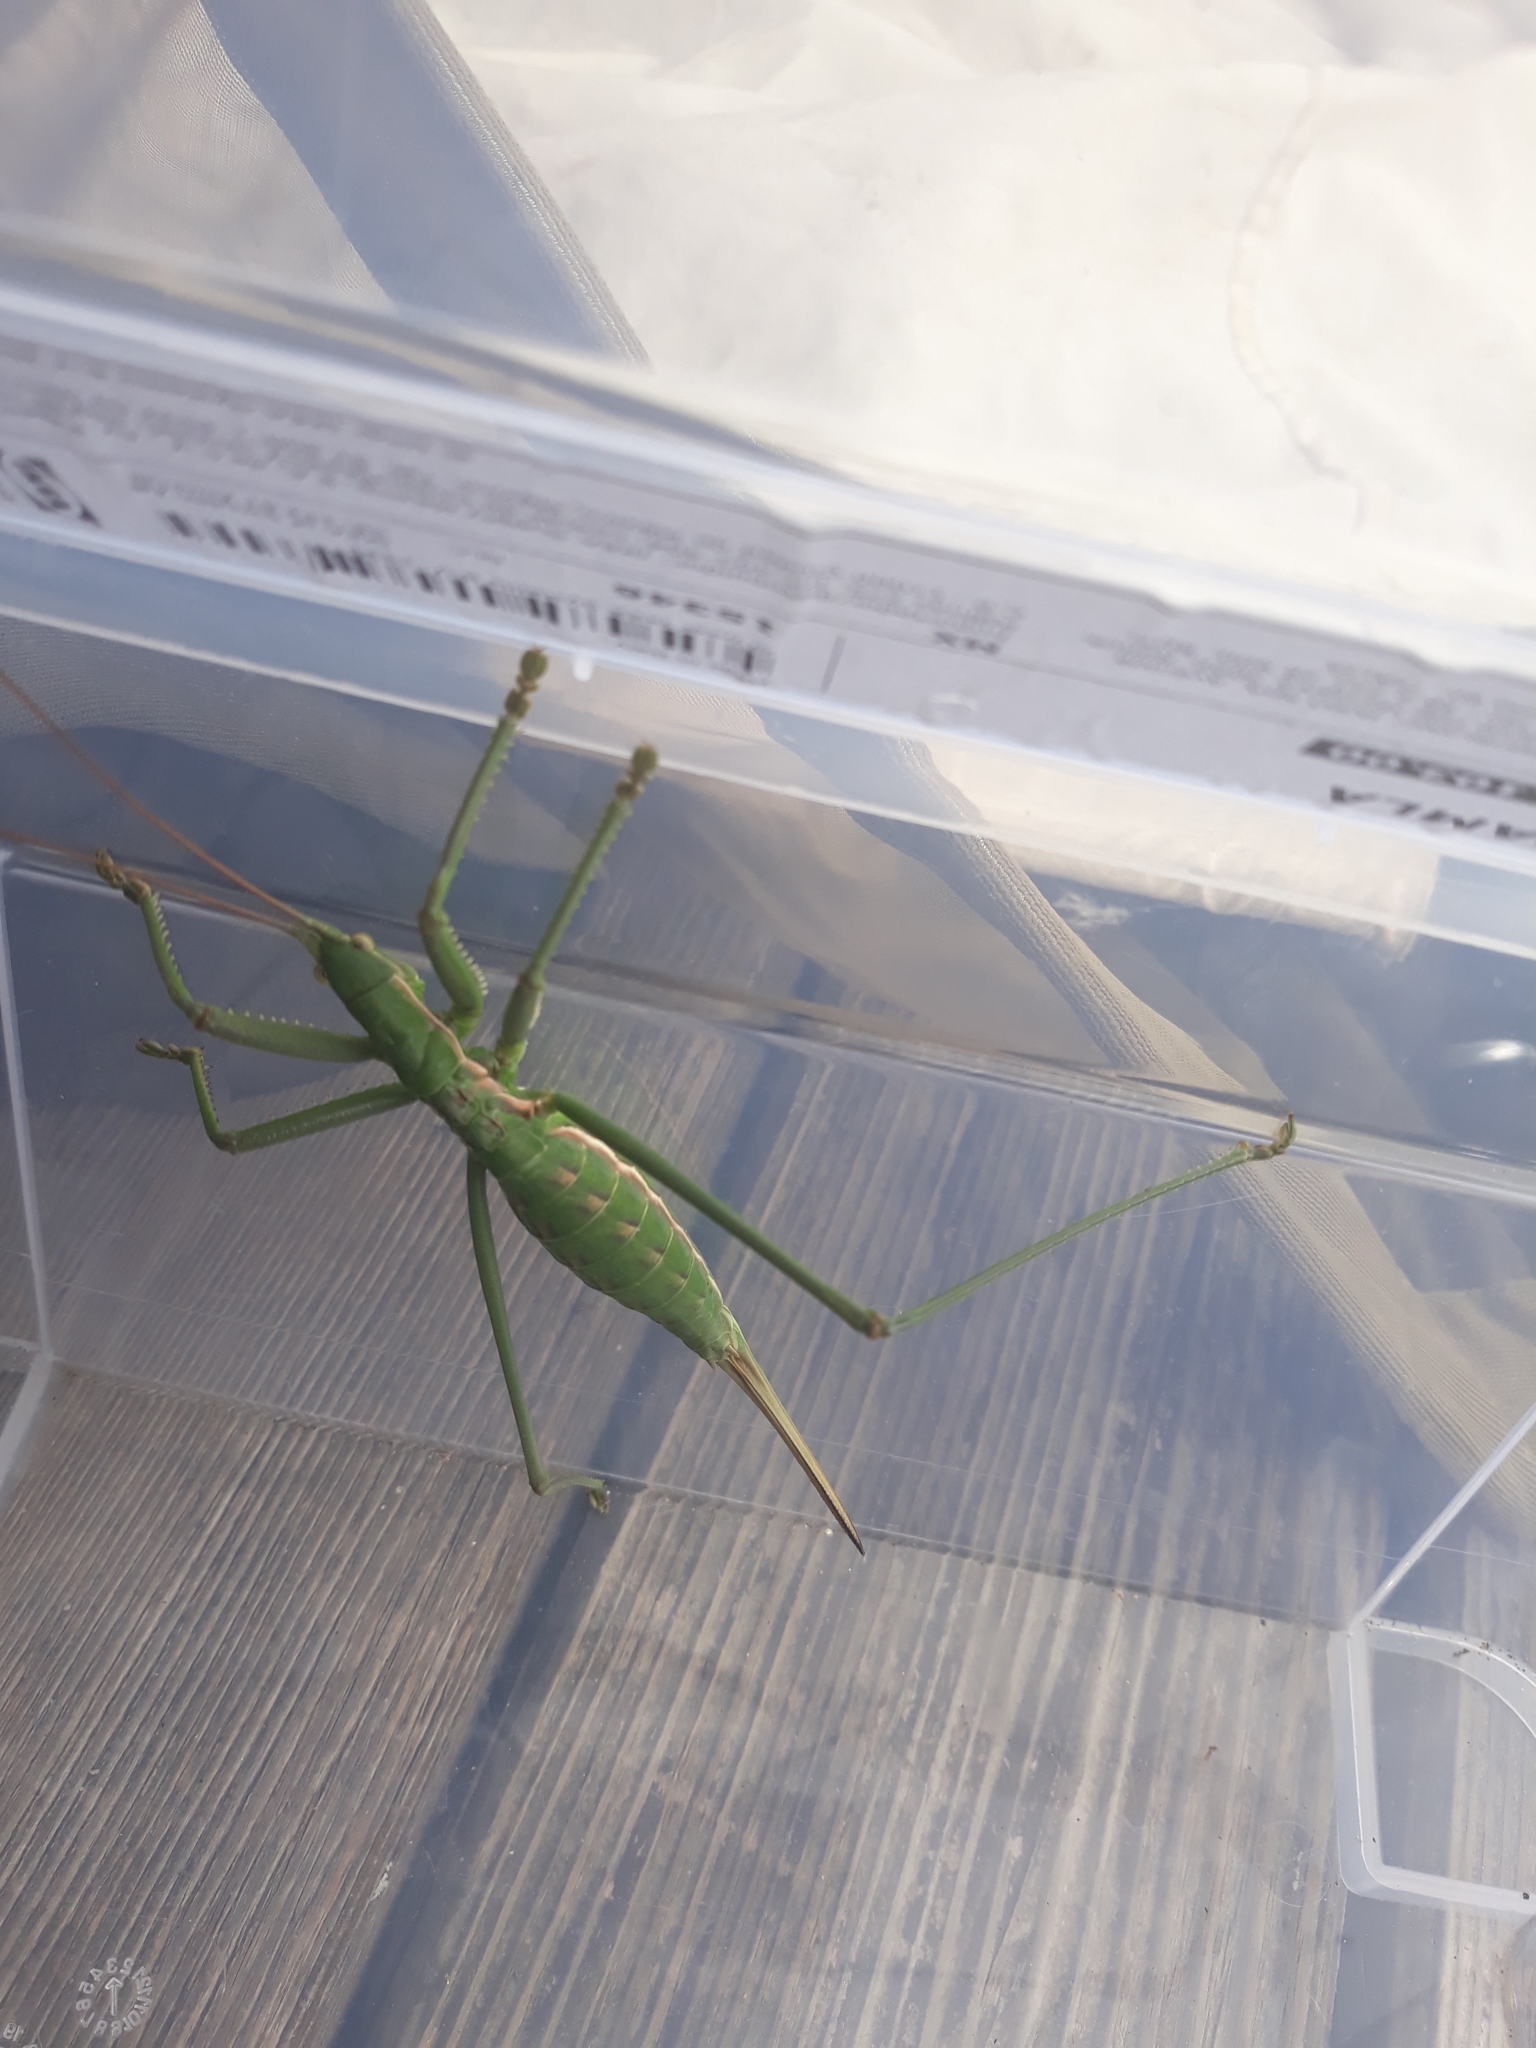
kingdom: Animalia
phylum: Arthropoda
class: Insecta
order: Orthoptera
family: Tettigoniidae
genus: Saga
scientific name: Saga pedo
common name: Common predatory bush-cricket
